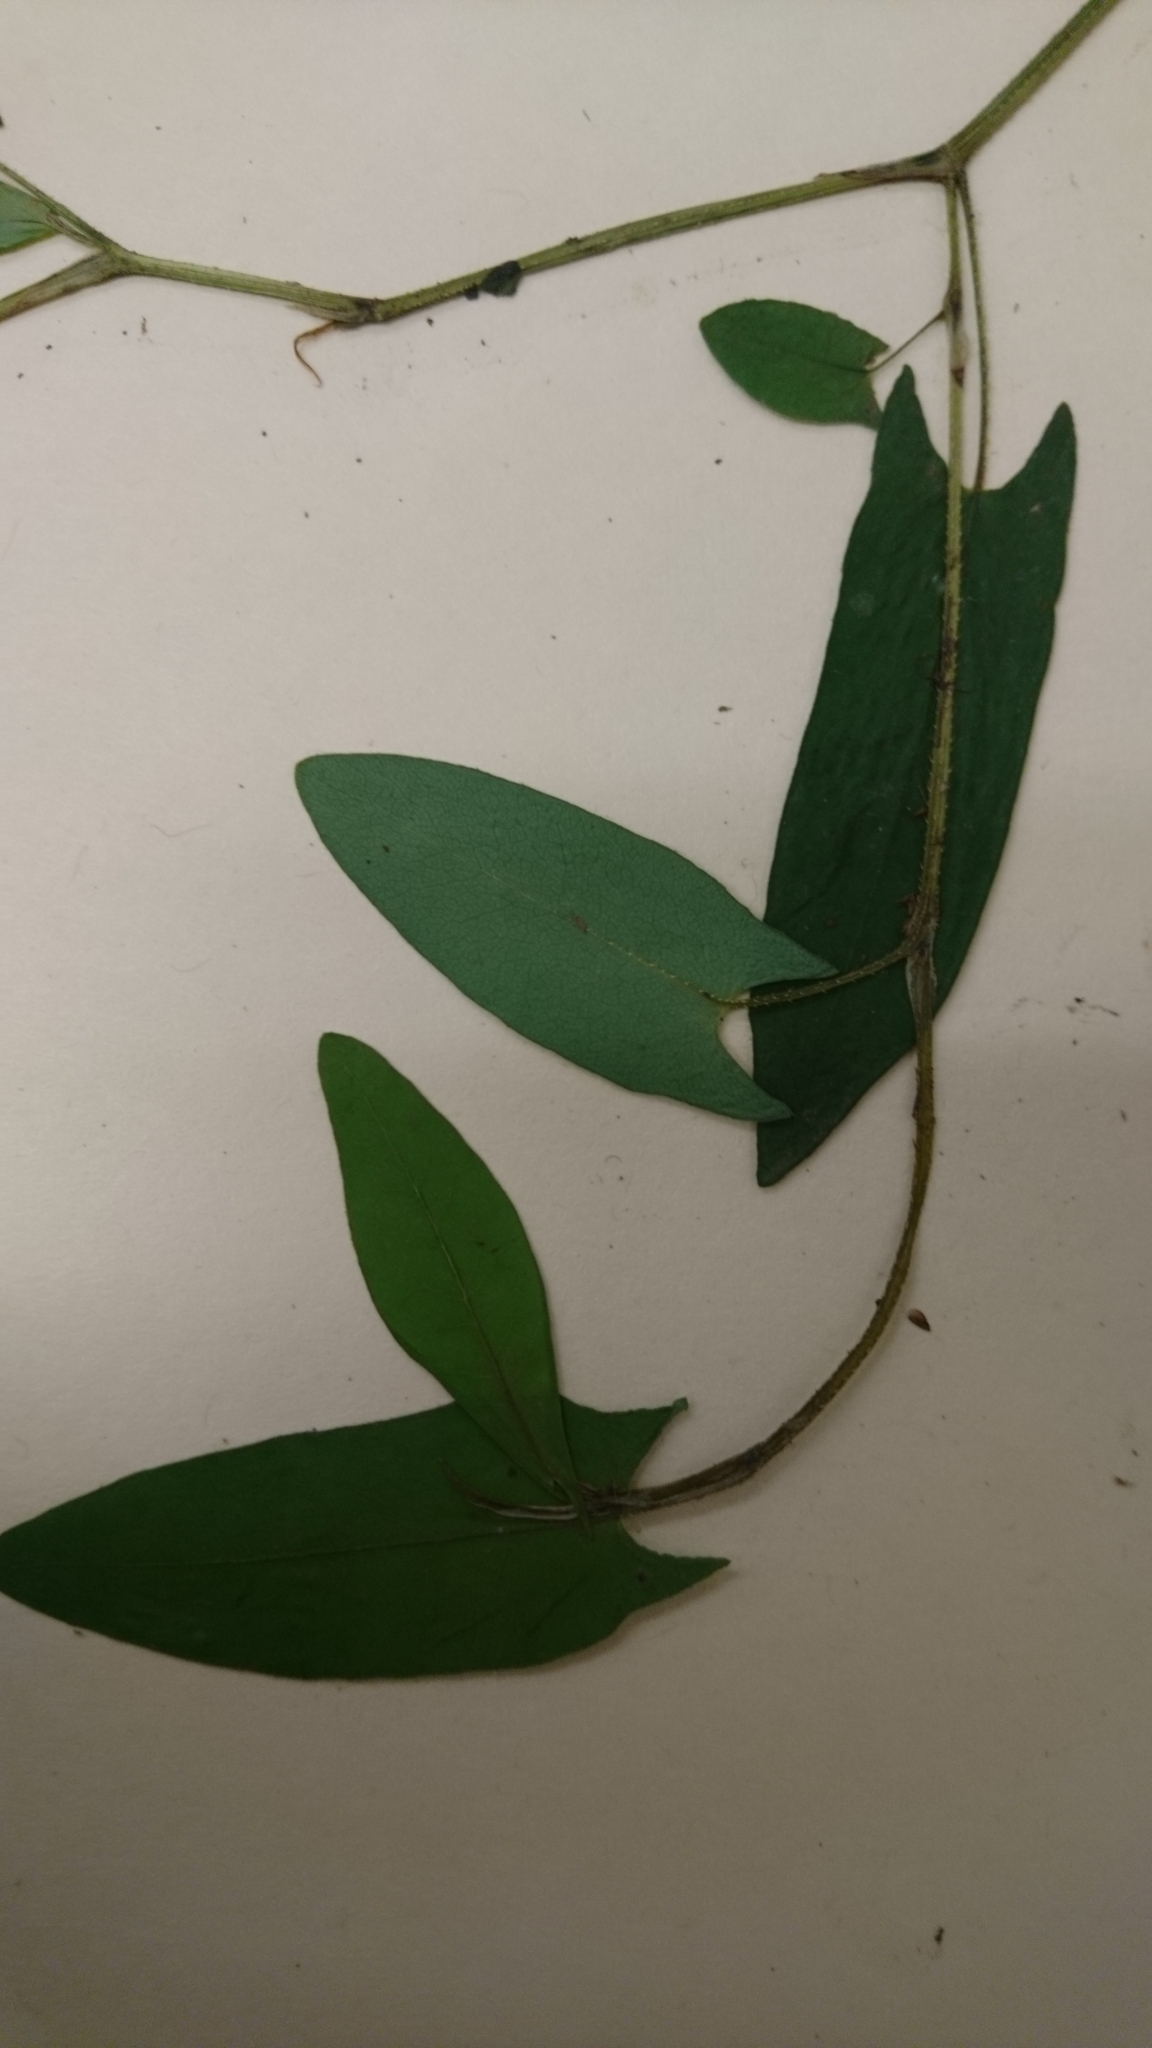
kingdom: Plantae
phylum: Tracheophyta
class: Magnoliopsida
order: Caryophyllales
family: Polygonaceae
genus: Persicaria
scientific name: Persicaria sagittata
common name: American tearthumb
